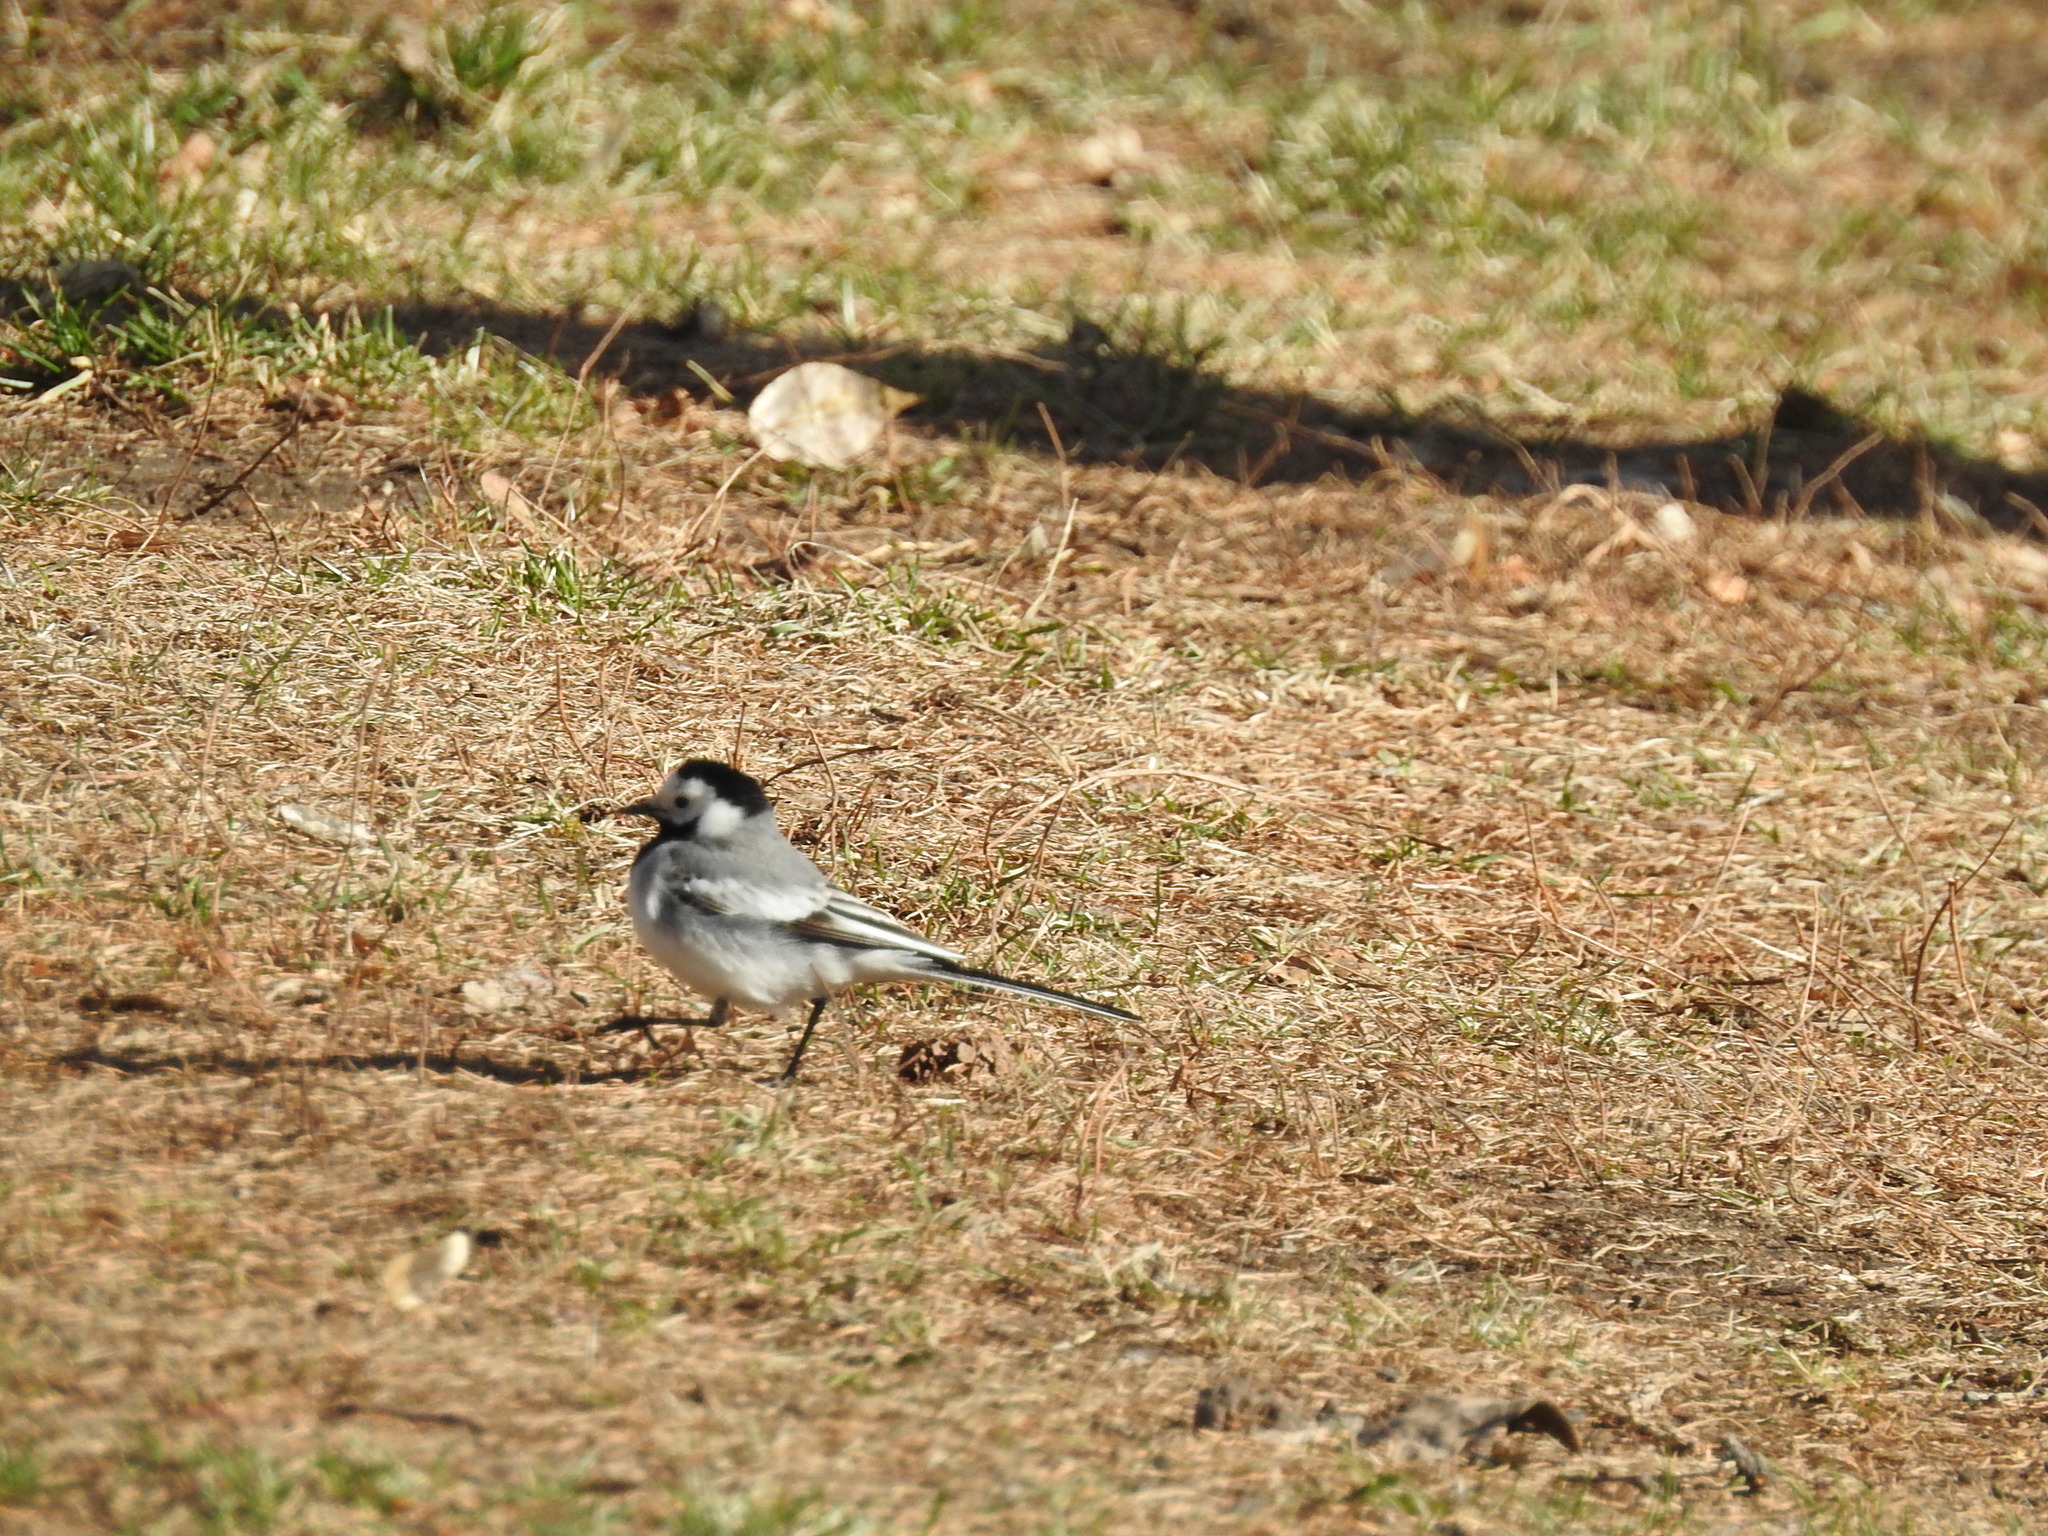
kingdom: Animalia
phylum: Chordata
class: Aves
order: Passeriformes
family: Motacillidae
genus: Motacilla
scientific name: Motacilla alba
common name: White wagtail
